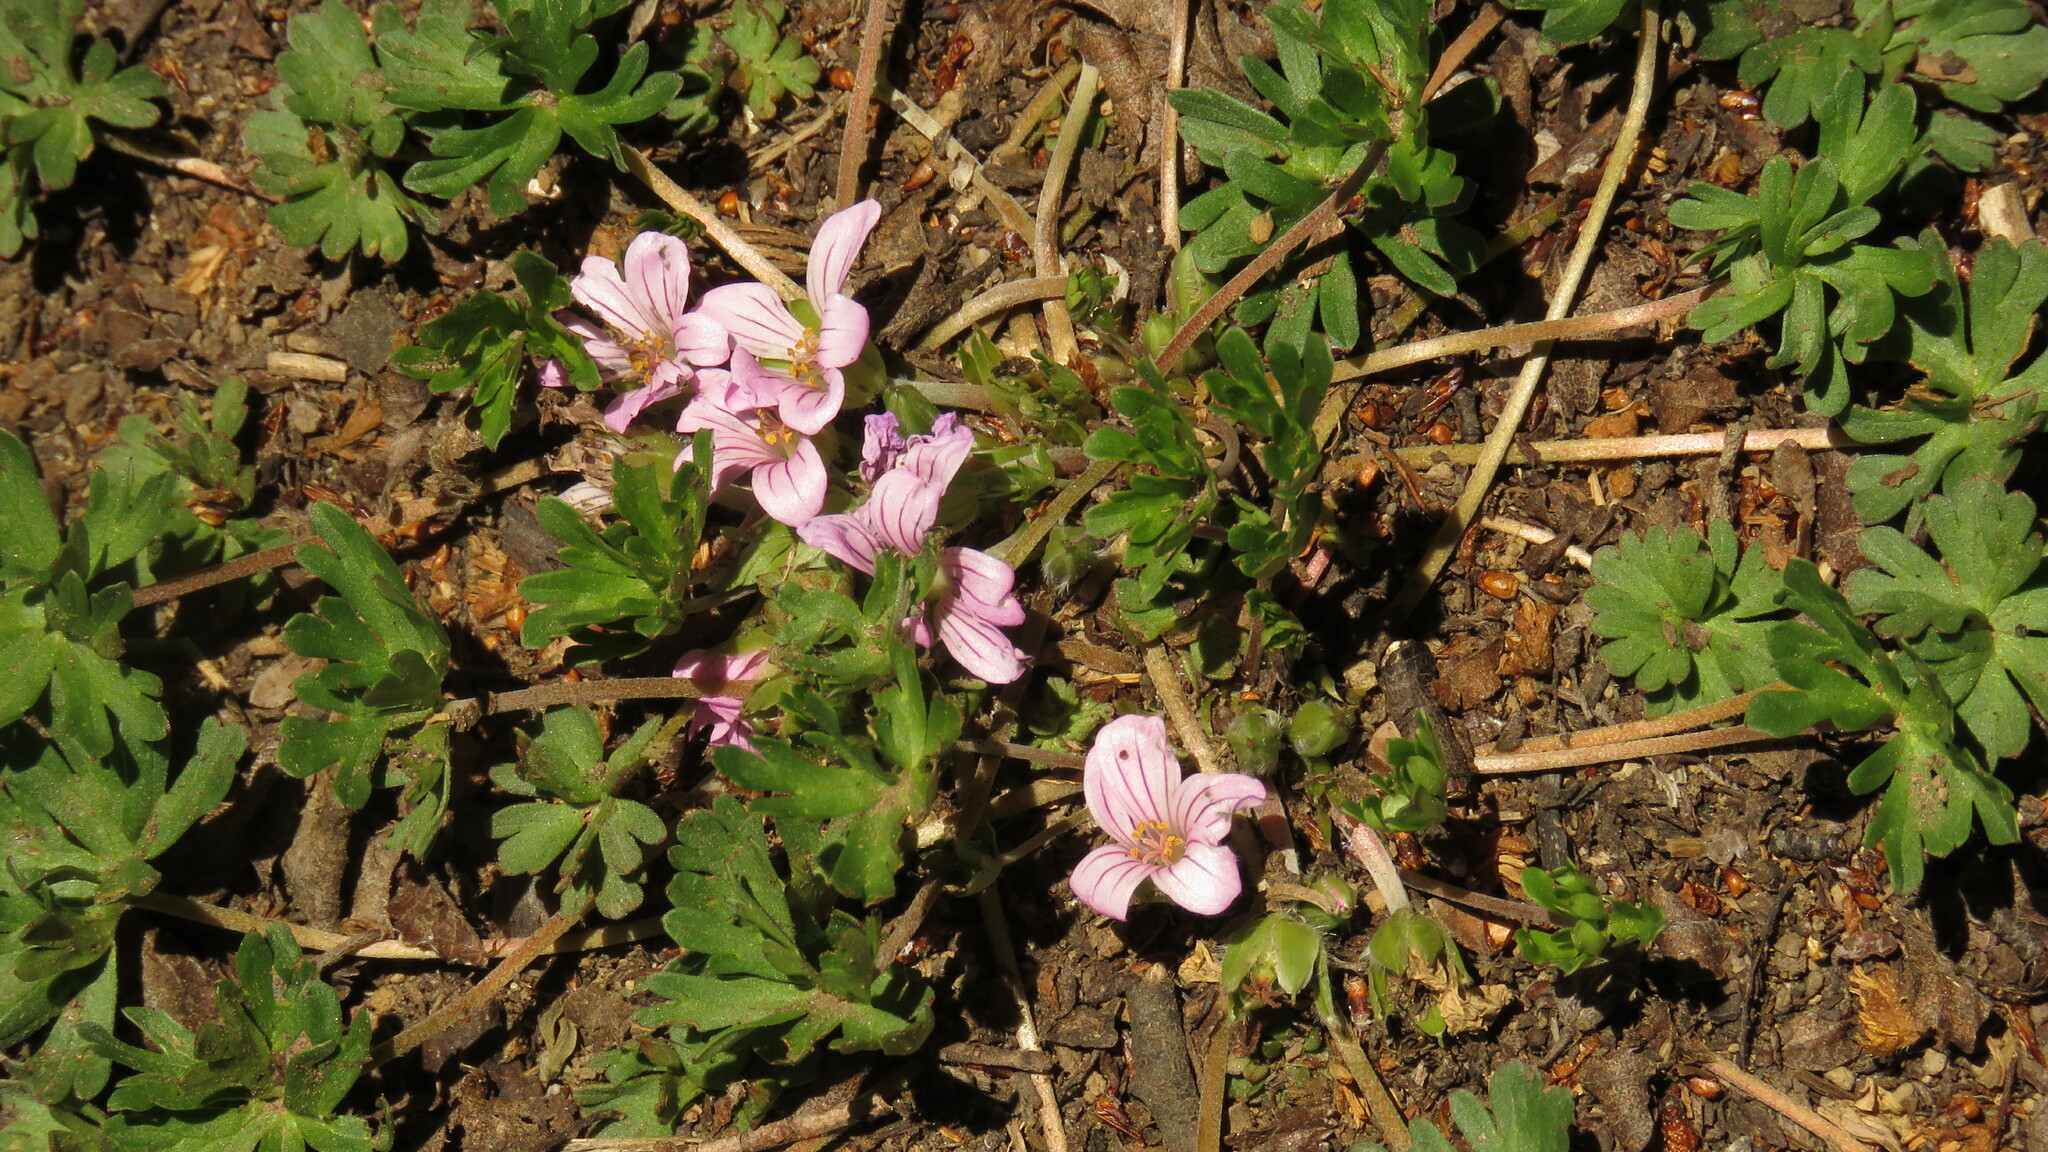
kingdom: Plantae
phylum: Tracheophyta
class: Magnoliopsida
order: Geraniales
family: Geraniaceae
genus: Geranium
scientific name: Geranium sessiliflorum
